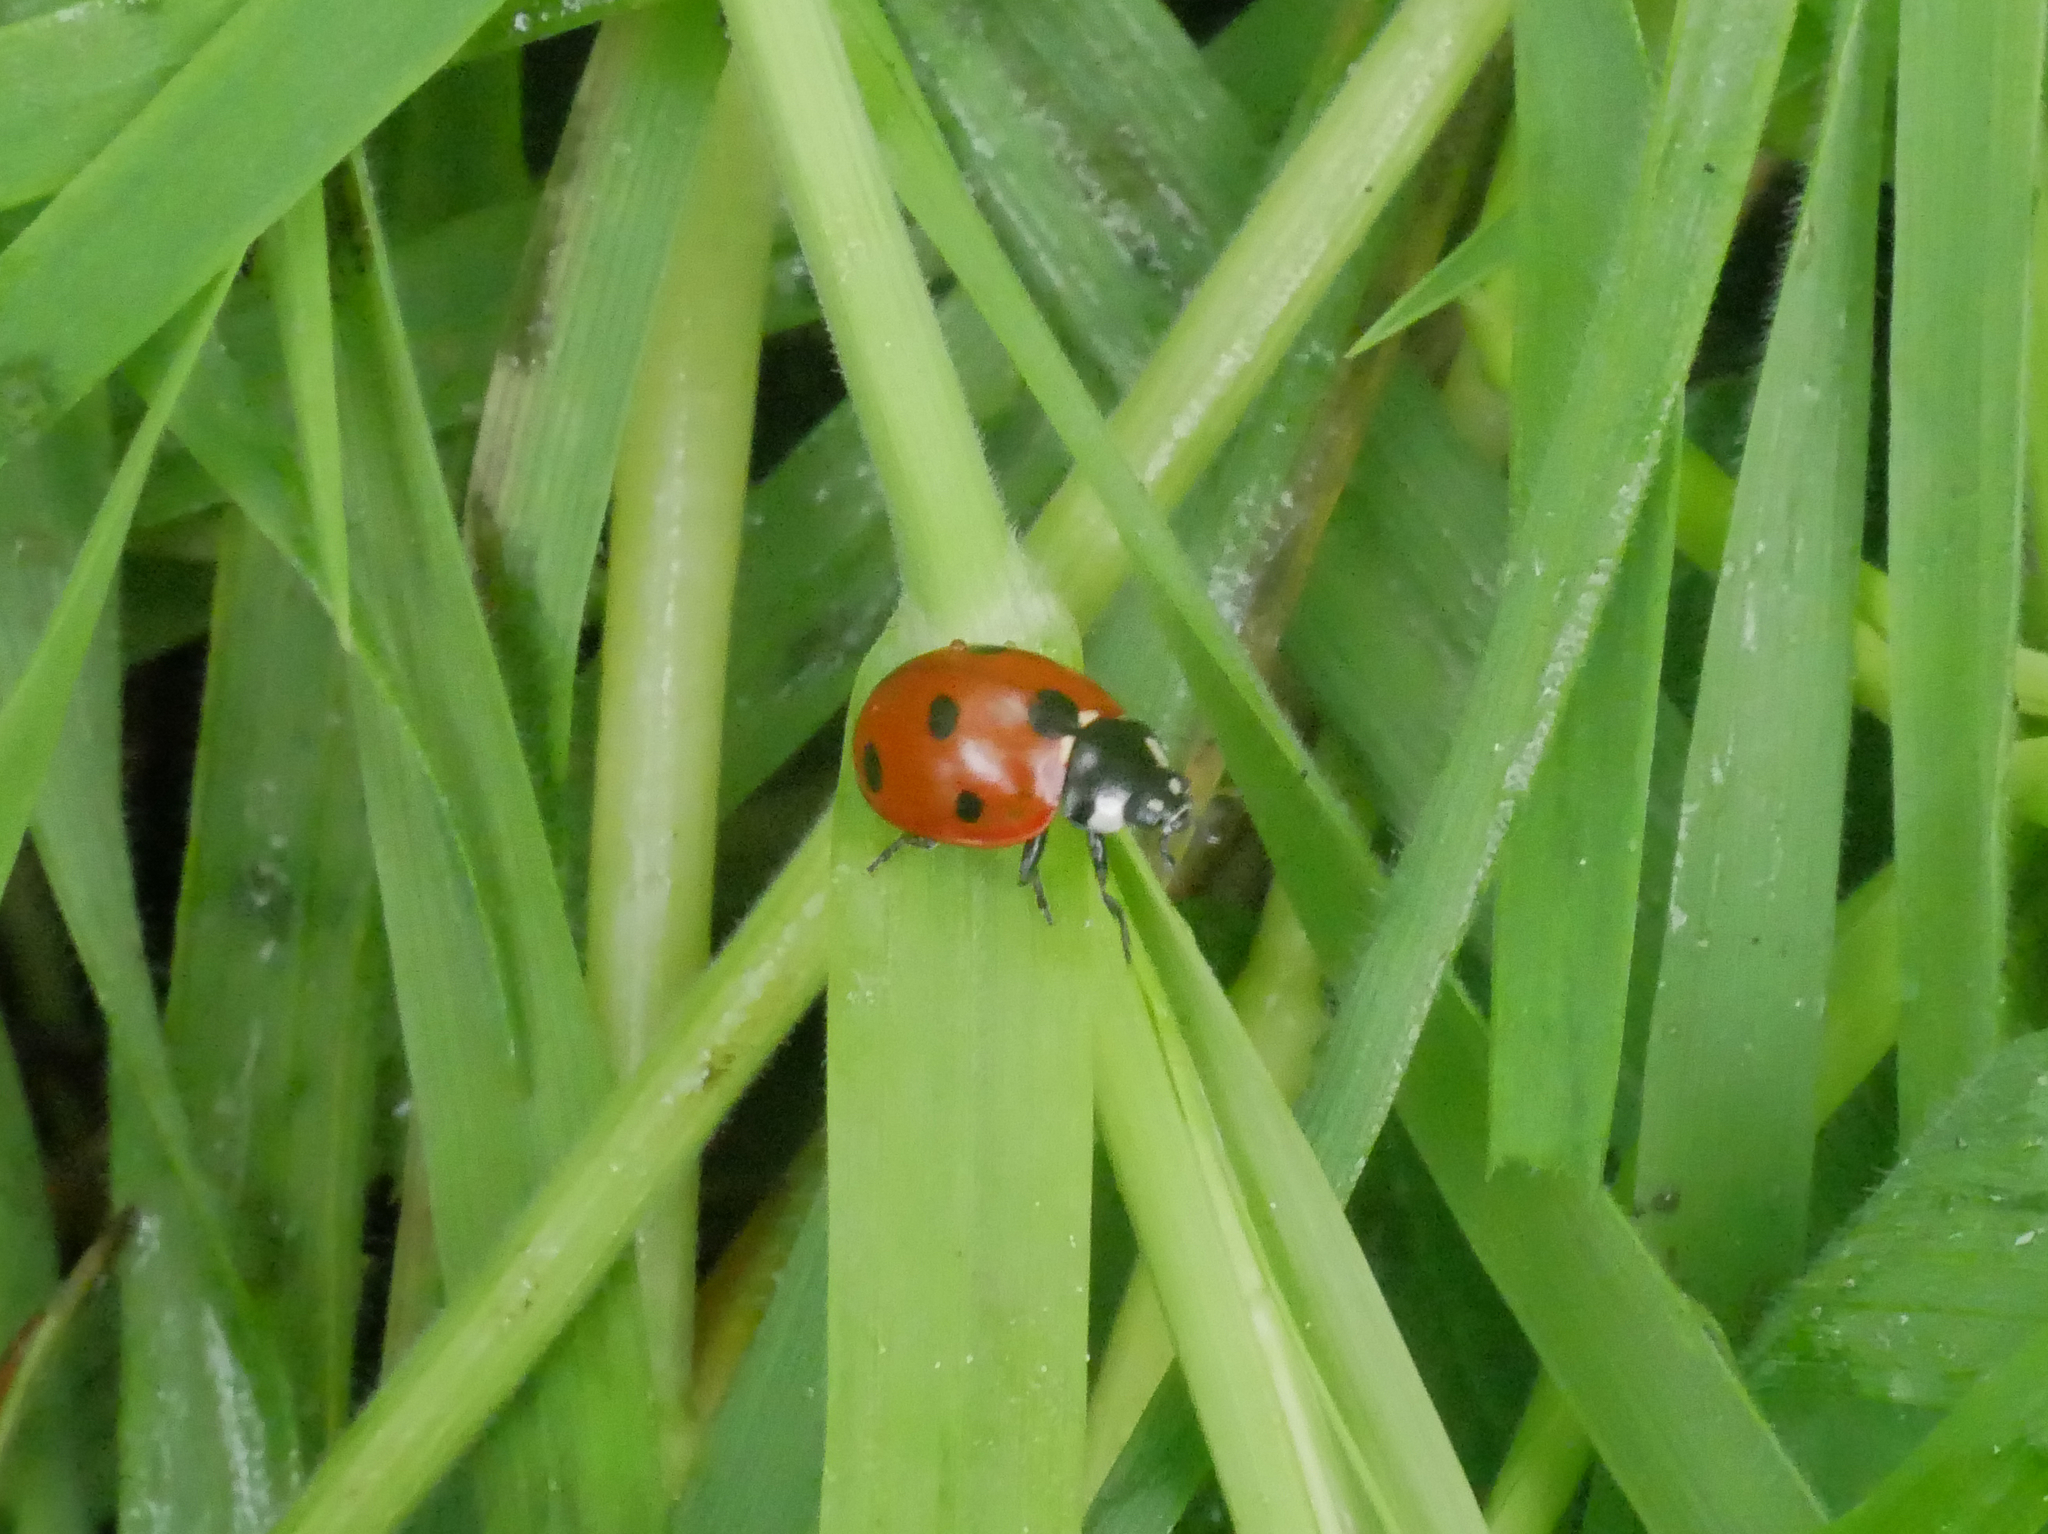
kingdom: Animalia
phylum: Arthropoda
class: Insecta
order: Coleoptera
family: Coccinellidae
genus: Coccinella
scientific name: Coccinella septempunctata
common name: Sevenspotted lady beetle
